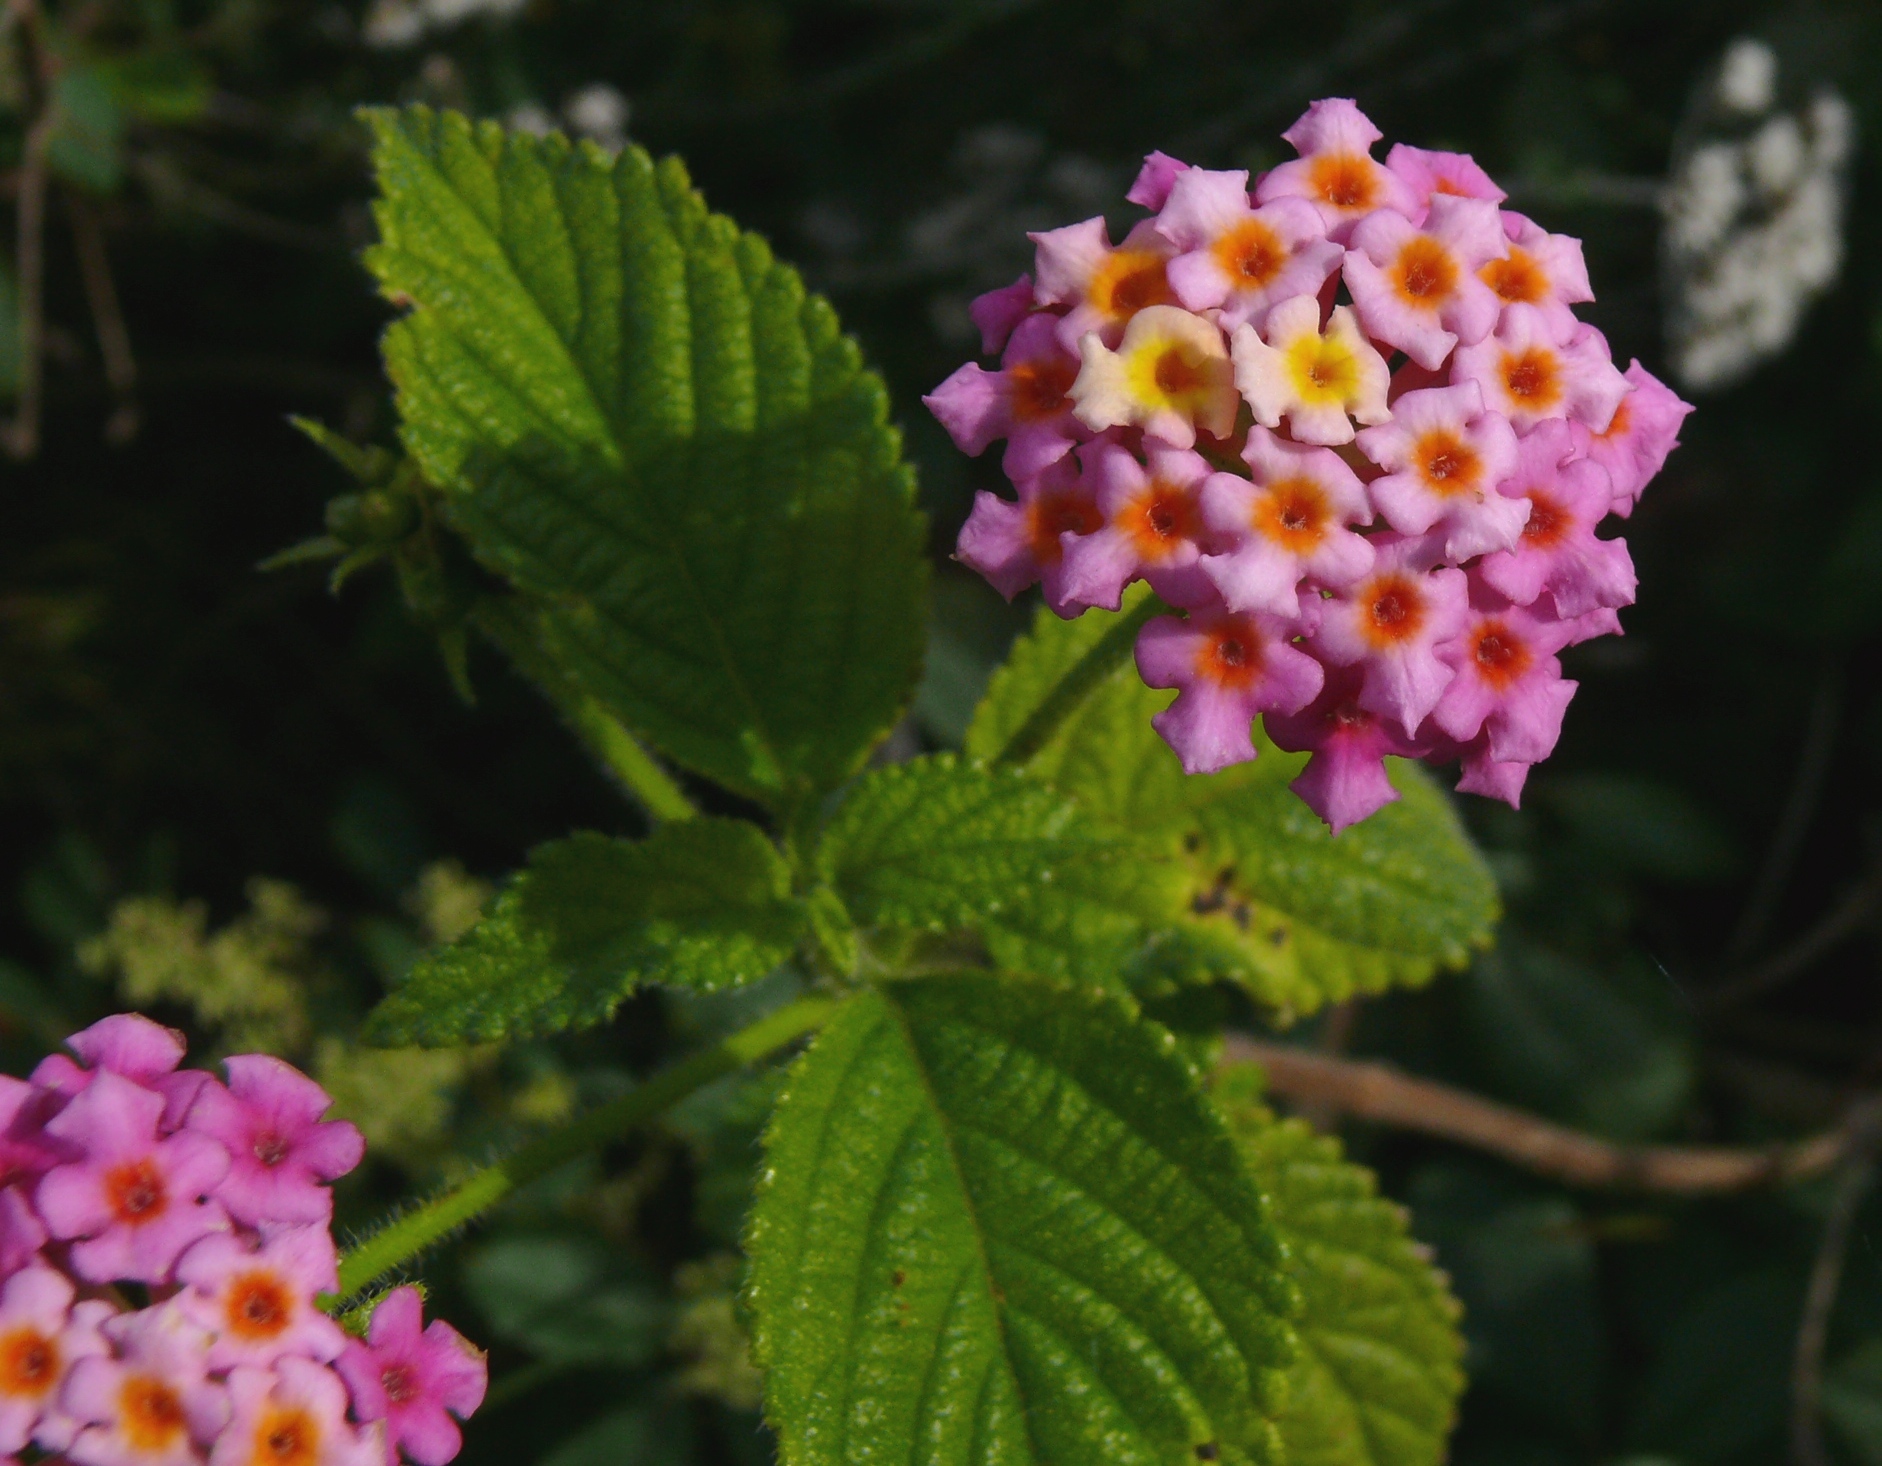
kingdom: Plantae
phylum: Tracheophyta
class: Magnoliopsida
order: Lamiales
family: Verbenaceae
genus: Lantana
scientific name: Lantana camara
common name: Lantana
